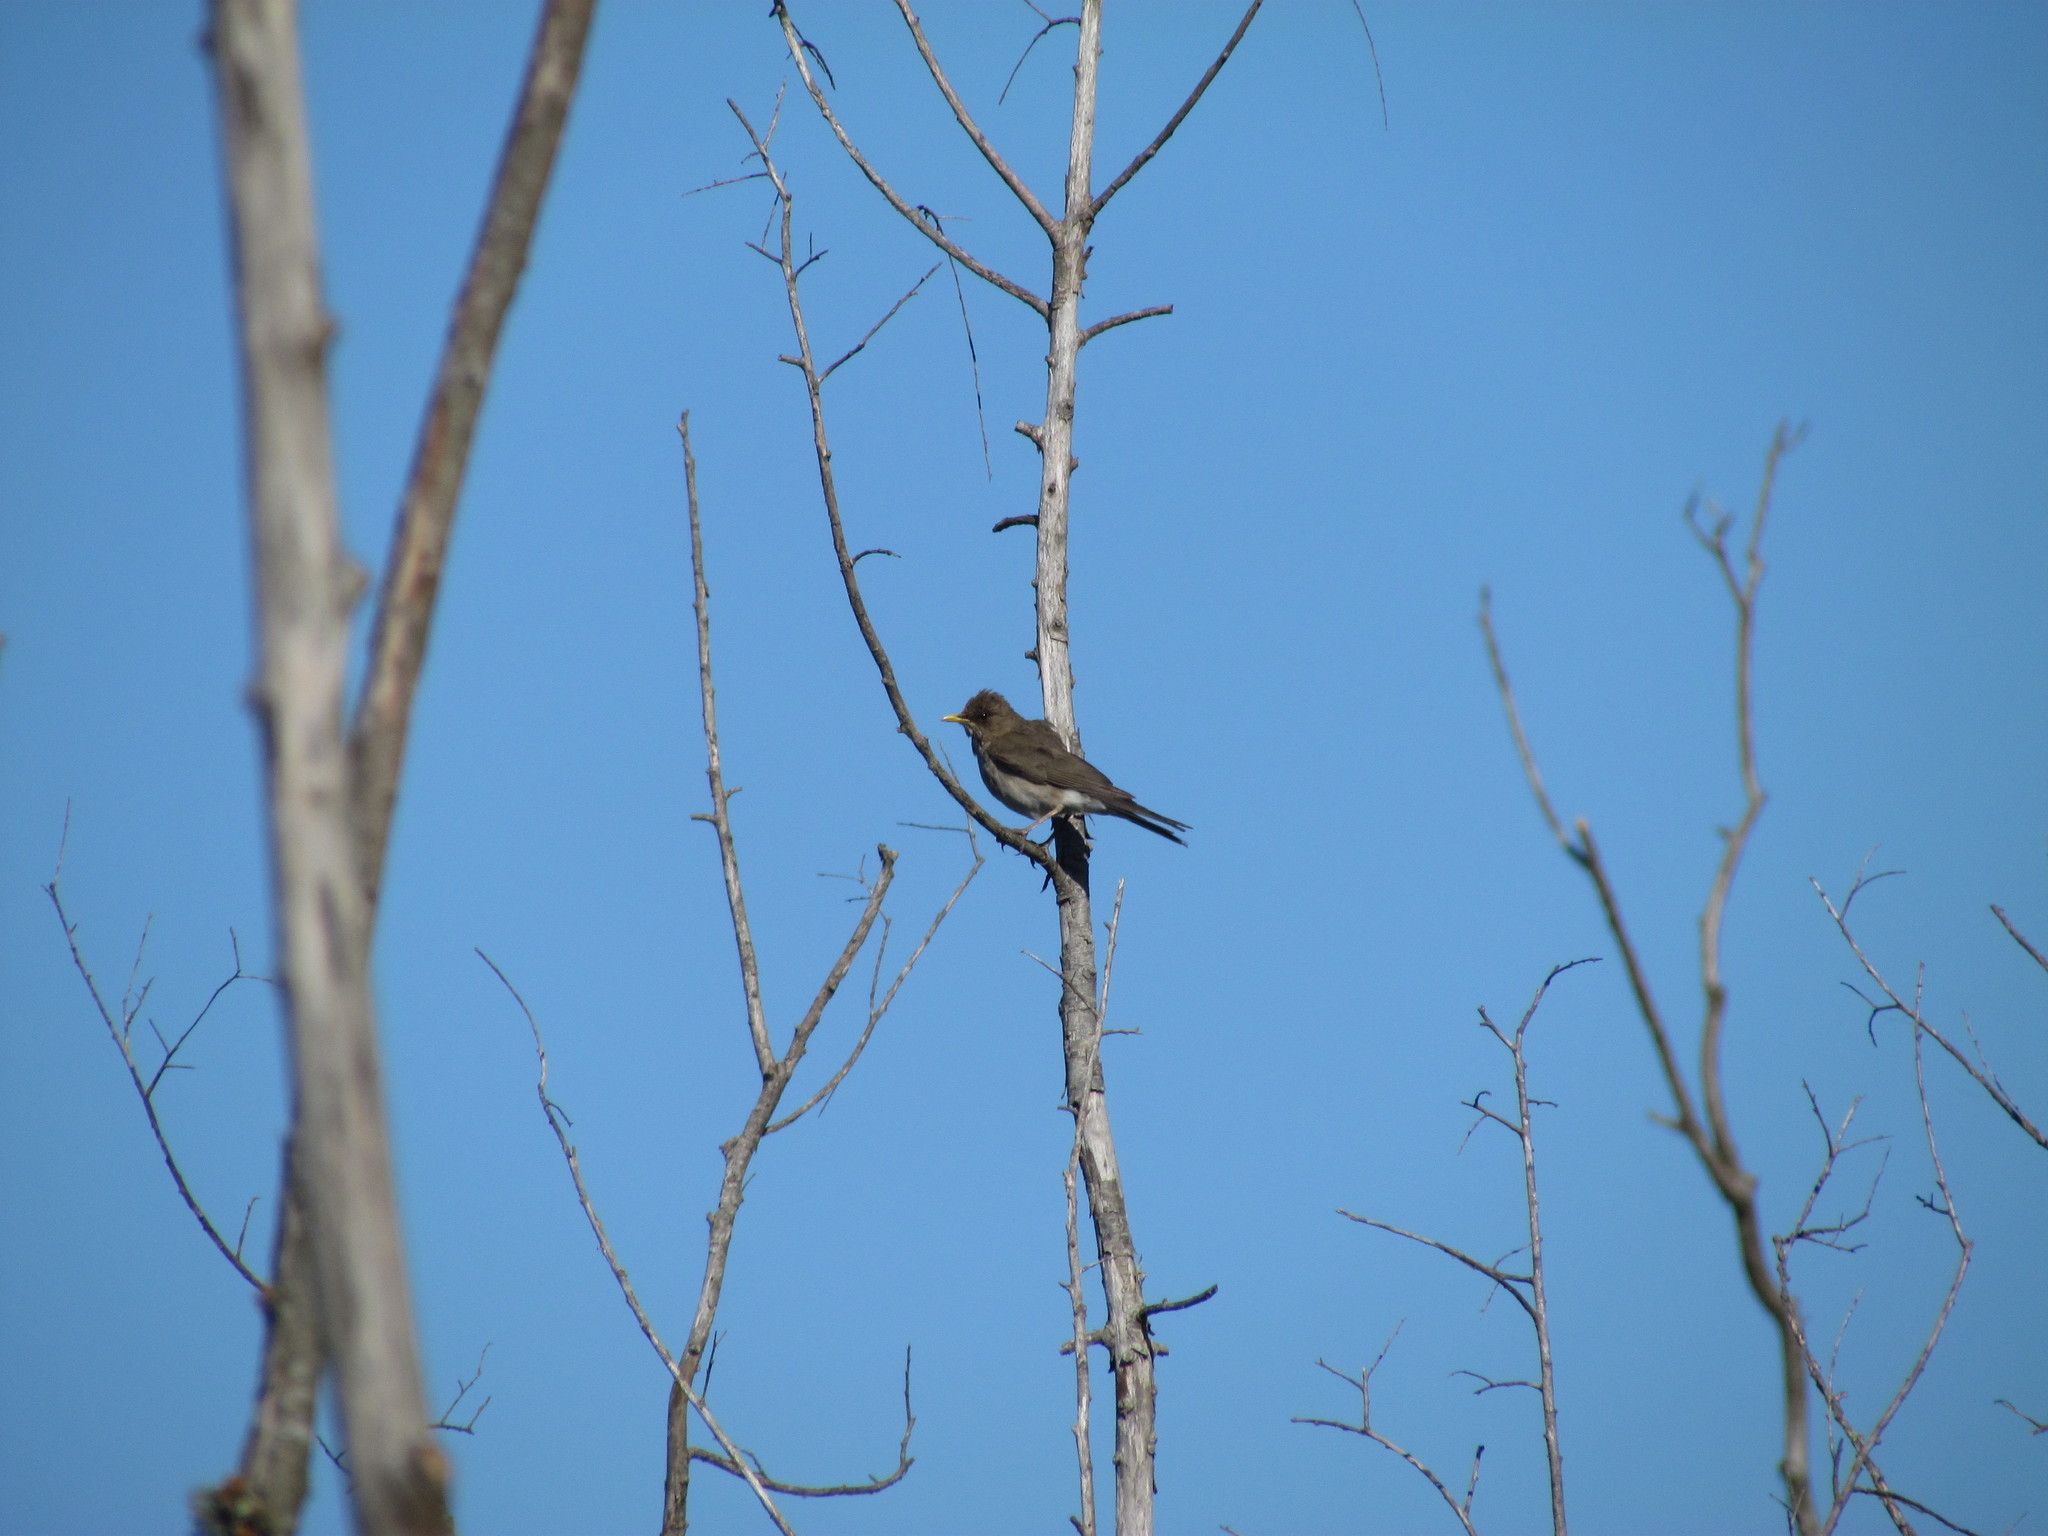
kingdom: Animalia
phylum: Chordata
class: Aves
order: Passeriformes
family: Turdidae
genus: Turdus
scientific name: Turdus amaurochalinus
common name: Creamy-bellied thrush
